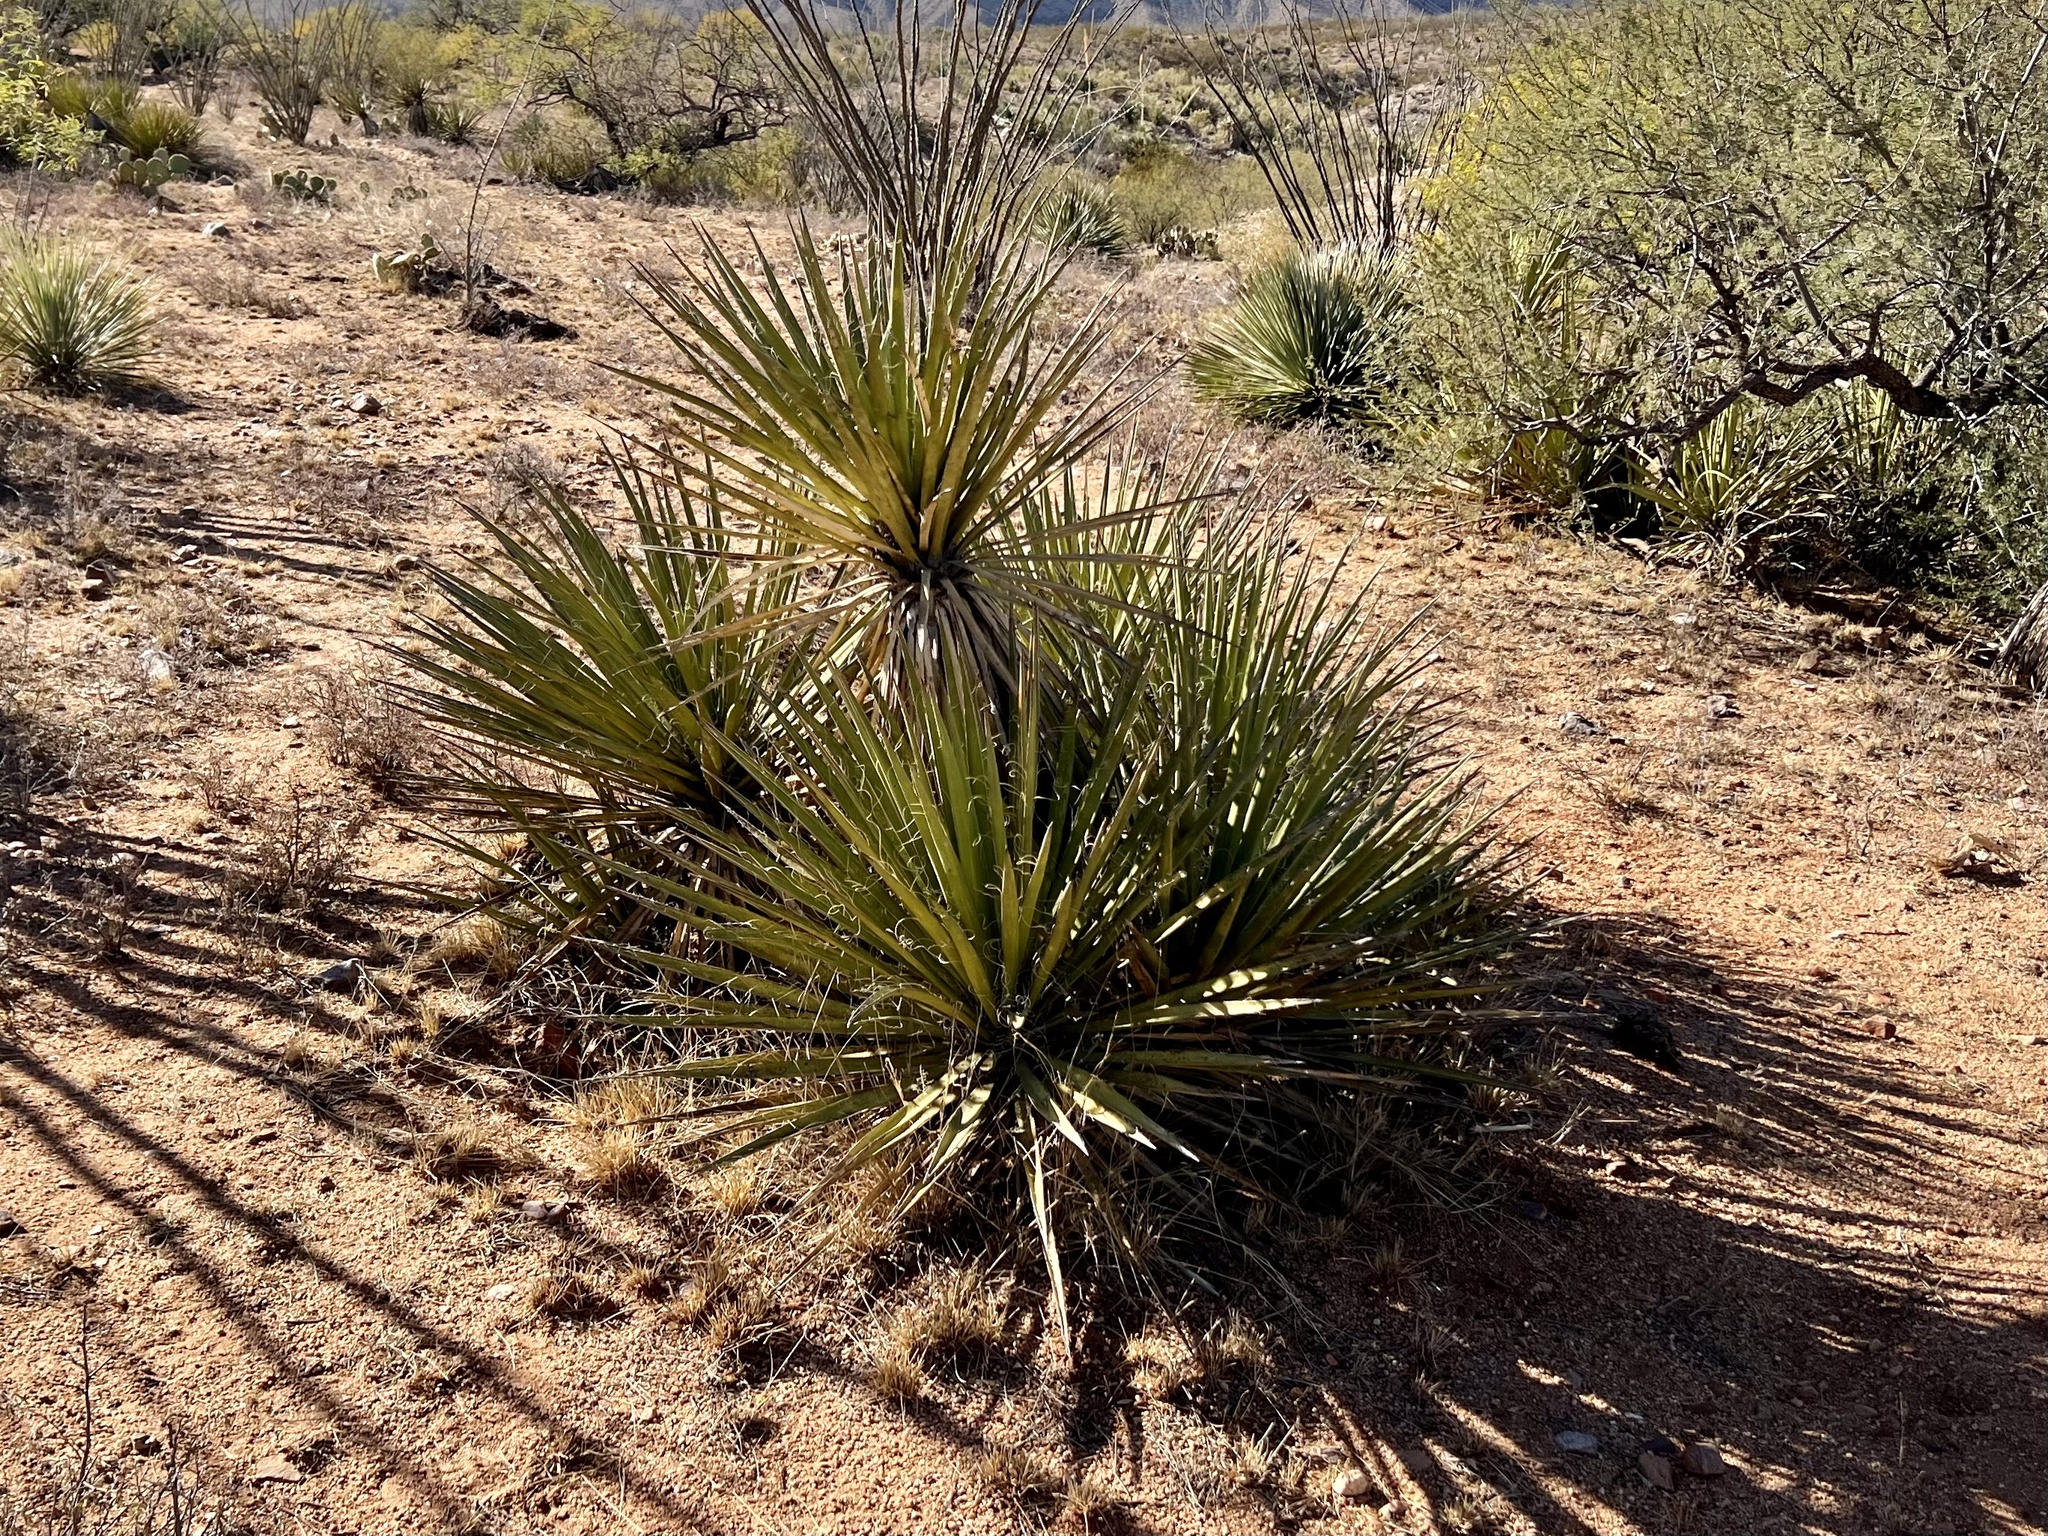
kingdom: Plantae
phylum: Tracheophyta
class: Liliopsida
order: Asparagales
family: Asparagaceae
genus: Yucca
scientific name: Yucca baccata
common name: Banana yucca
